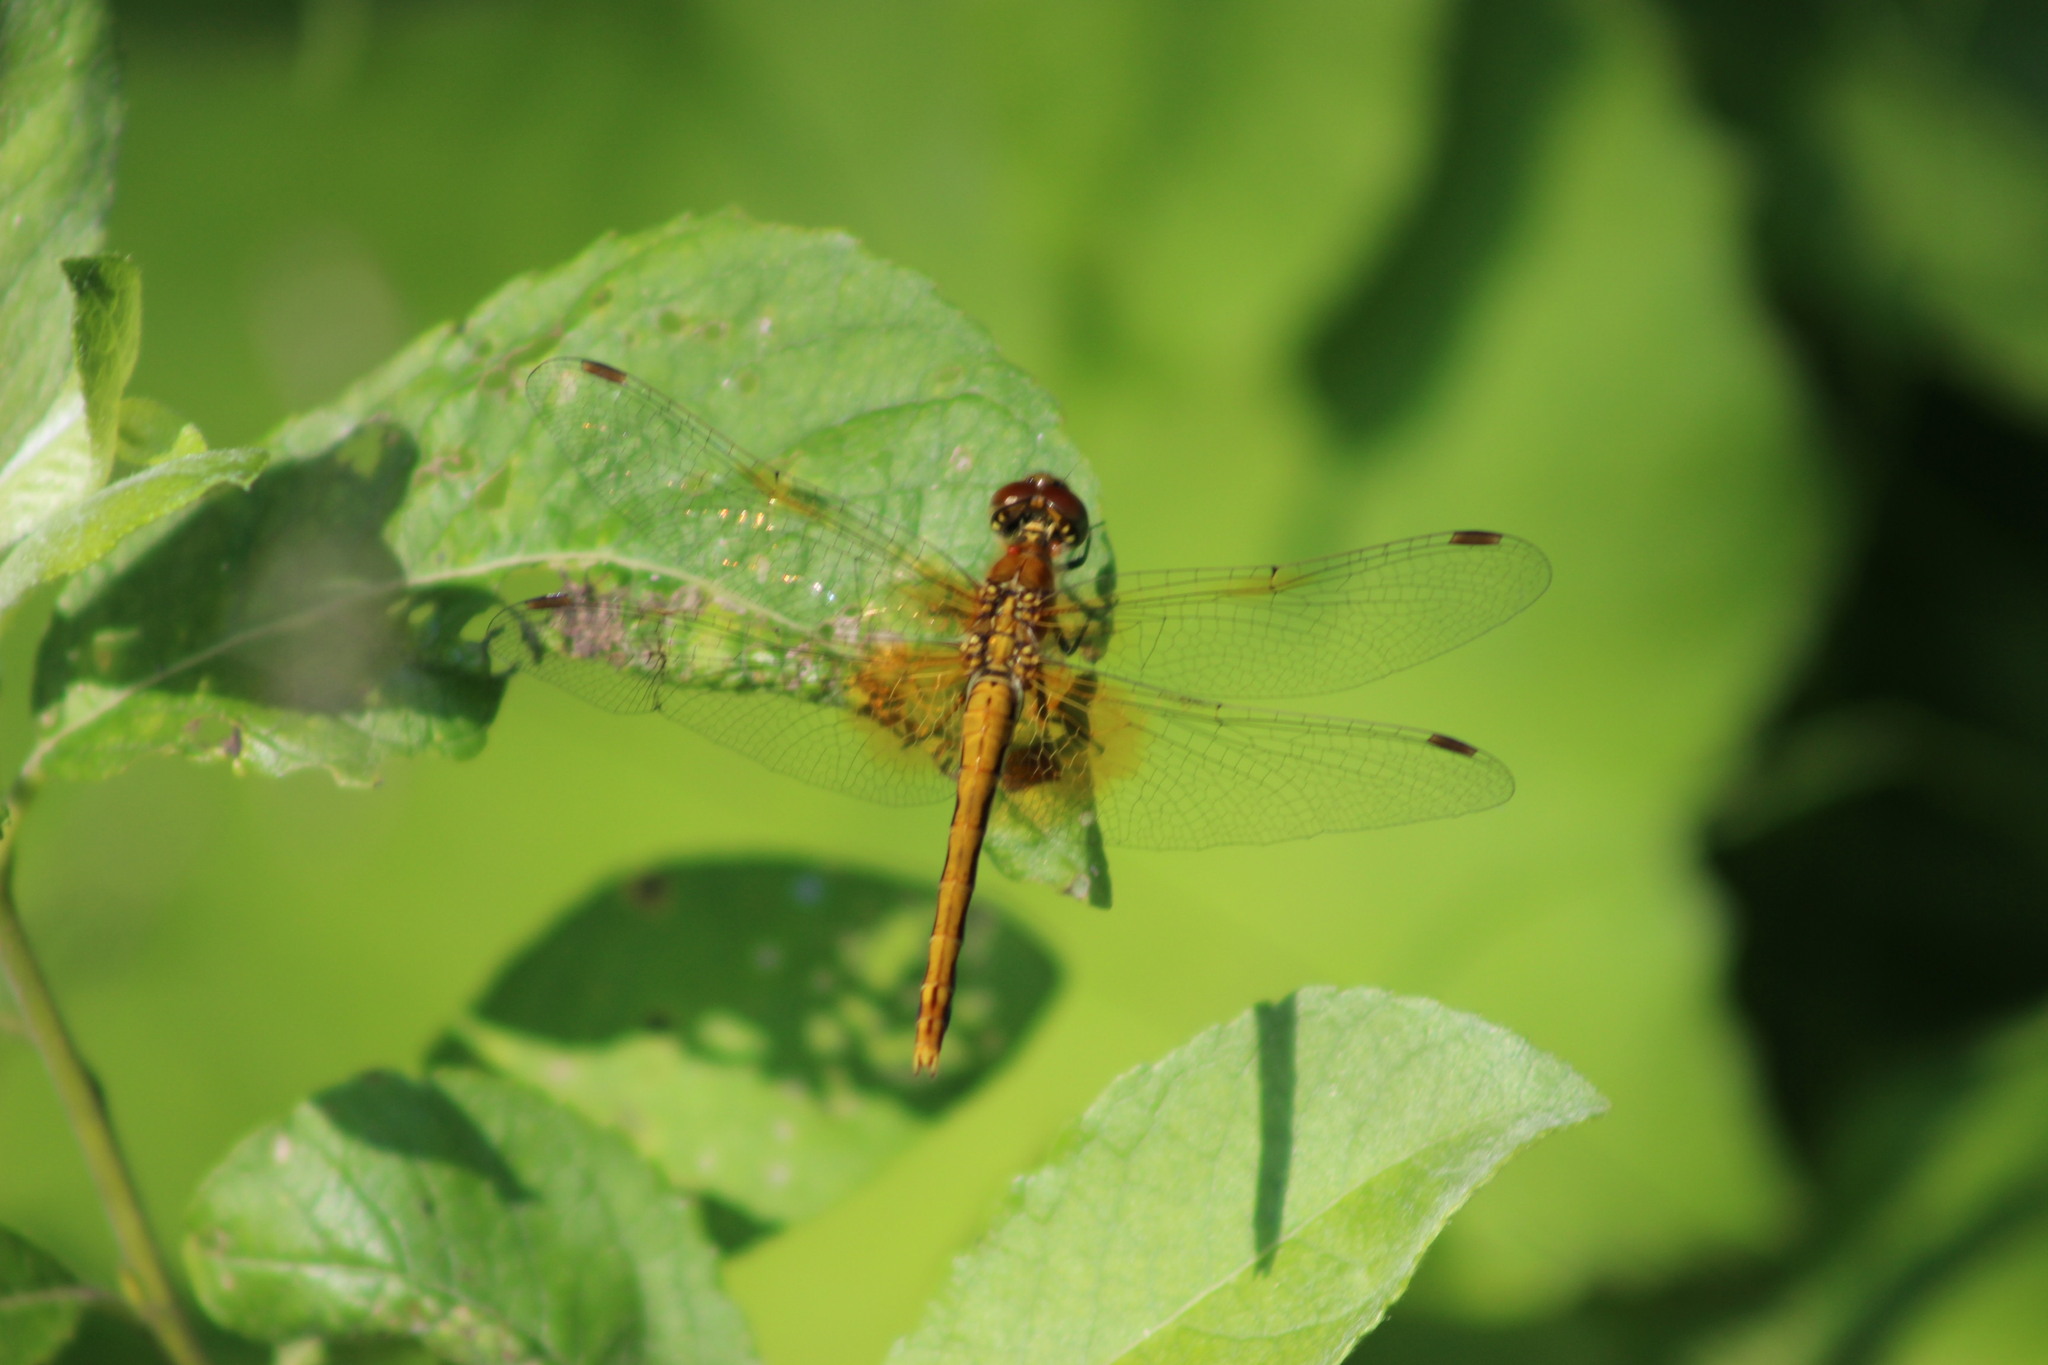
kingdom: Animalia
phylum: Arthropoda
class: Insecta
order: Odonata
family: Libellulidae
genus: Sympetrum
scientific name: Sympetrum flaveolum
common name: Yellow-winged darter
